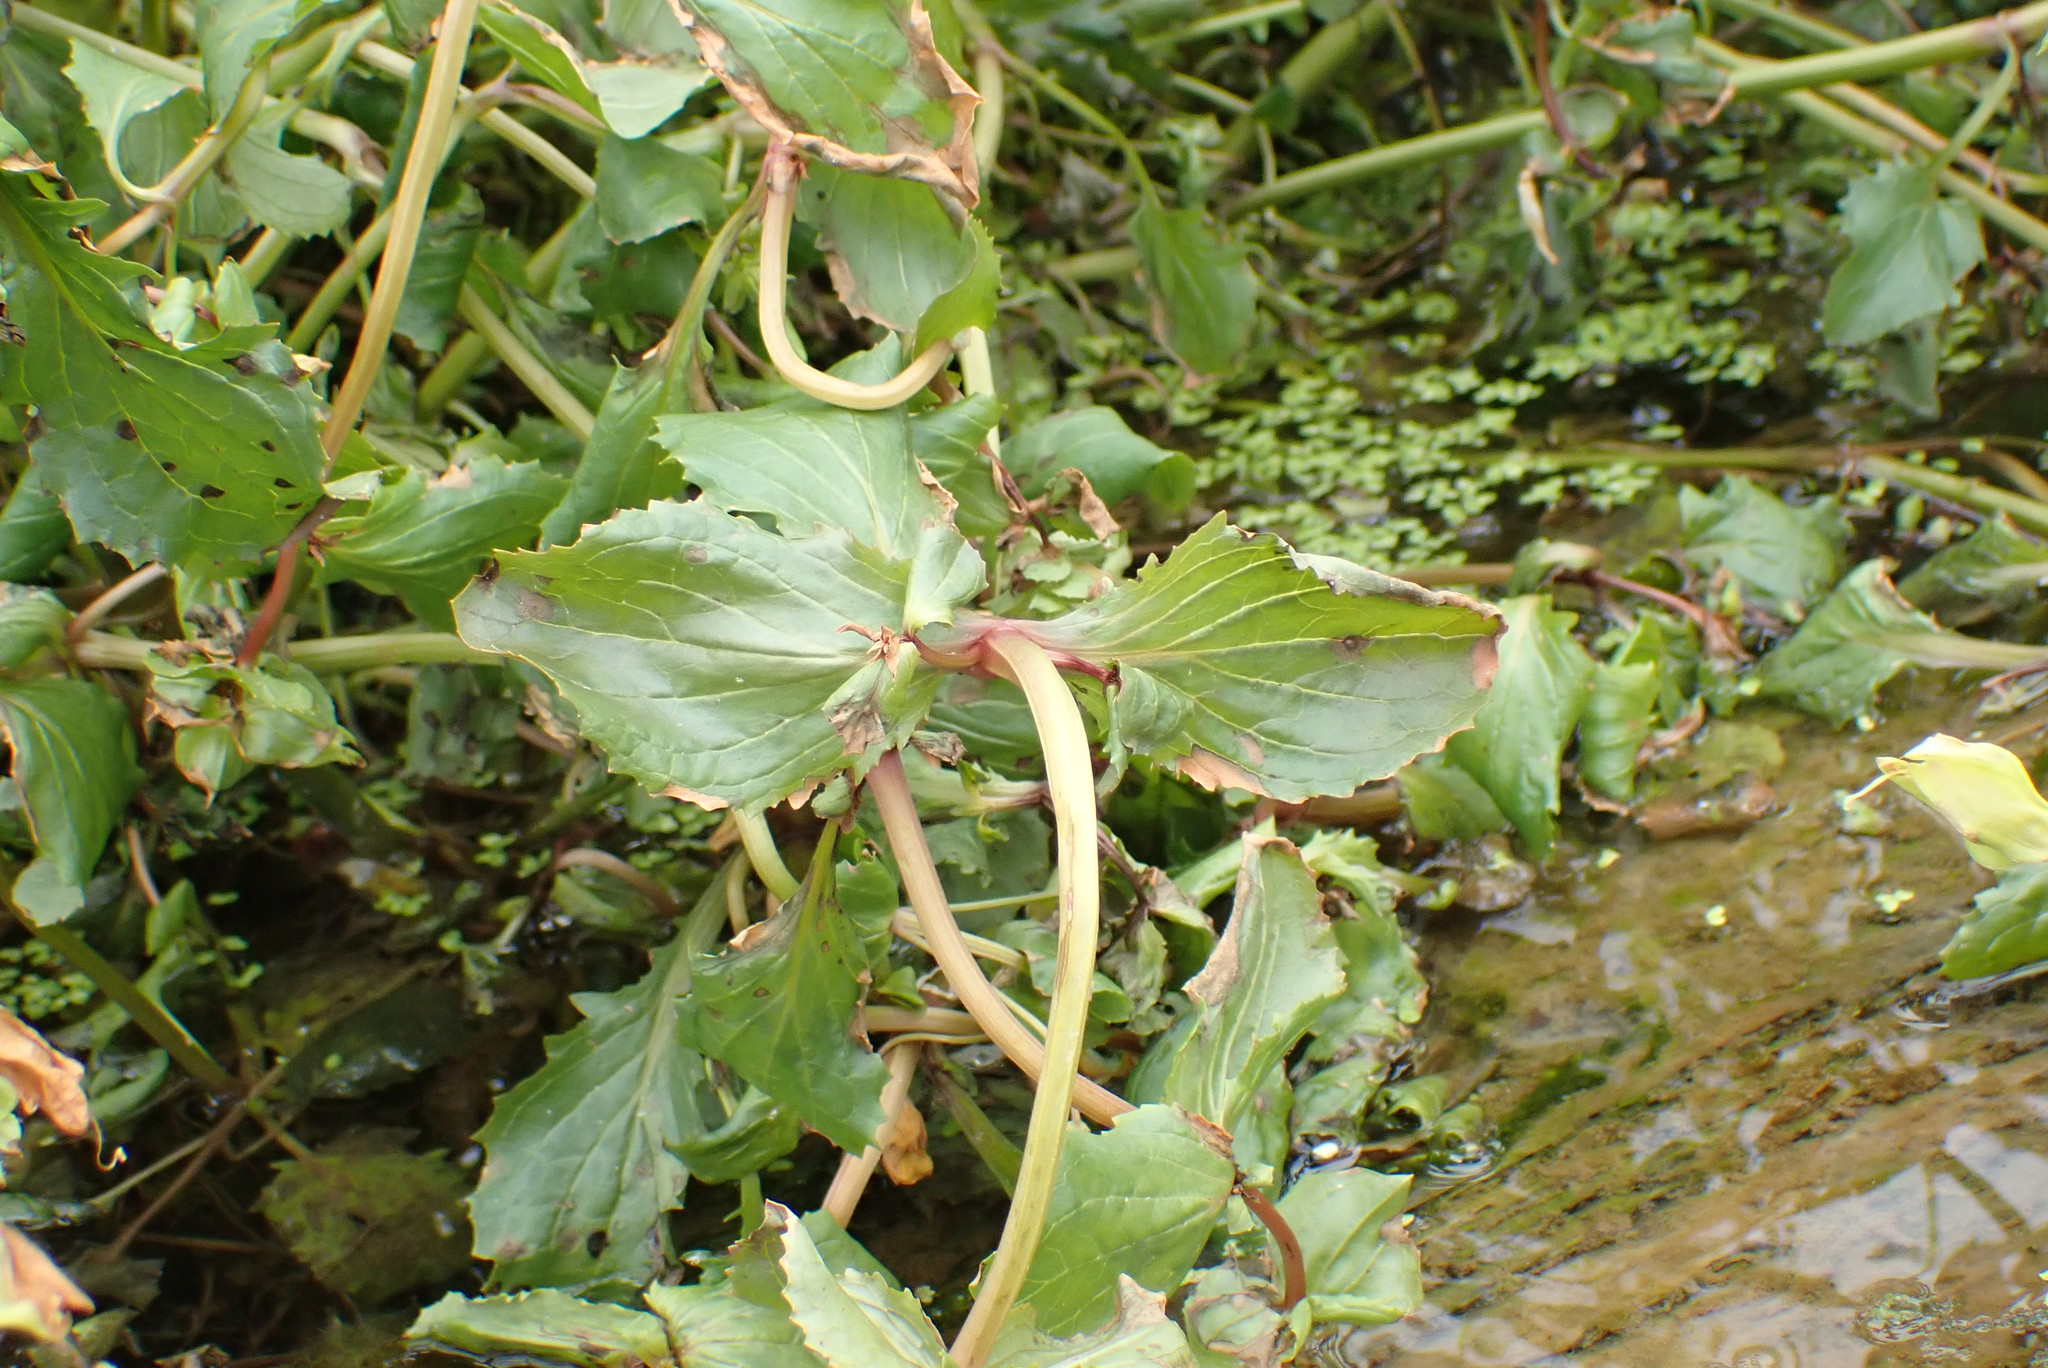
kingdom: Plantae
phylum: Tracheophyta
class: Magnoliopsida
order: Lamiales
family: Phrymaceae
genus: Erythranthe
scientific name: Erythranthe scouleri
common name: Columbia river monkeyflower
